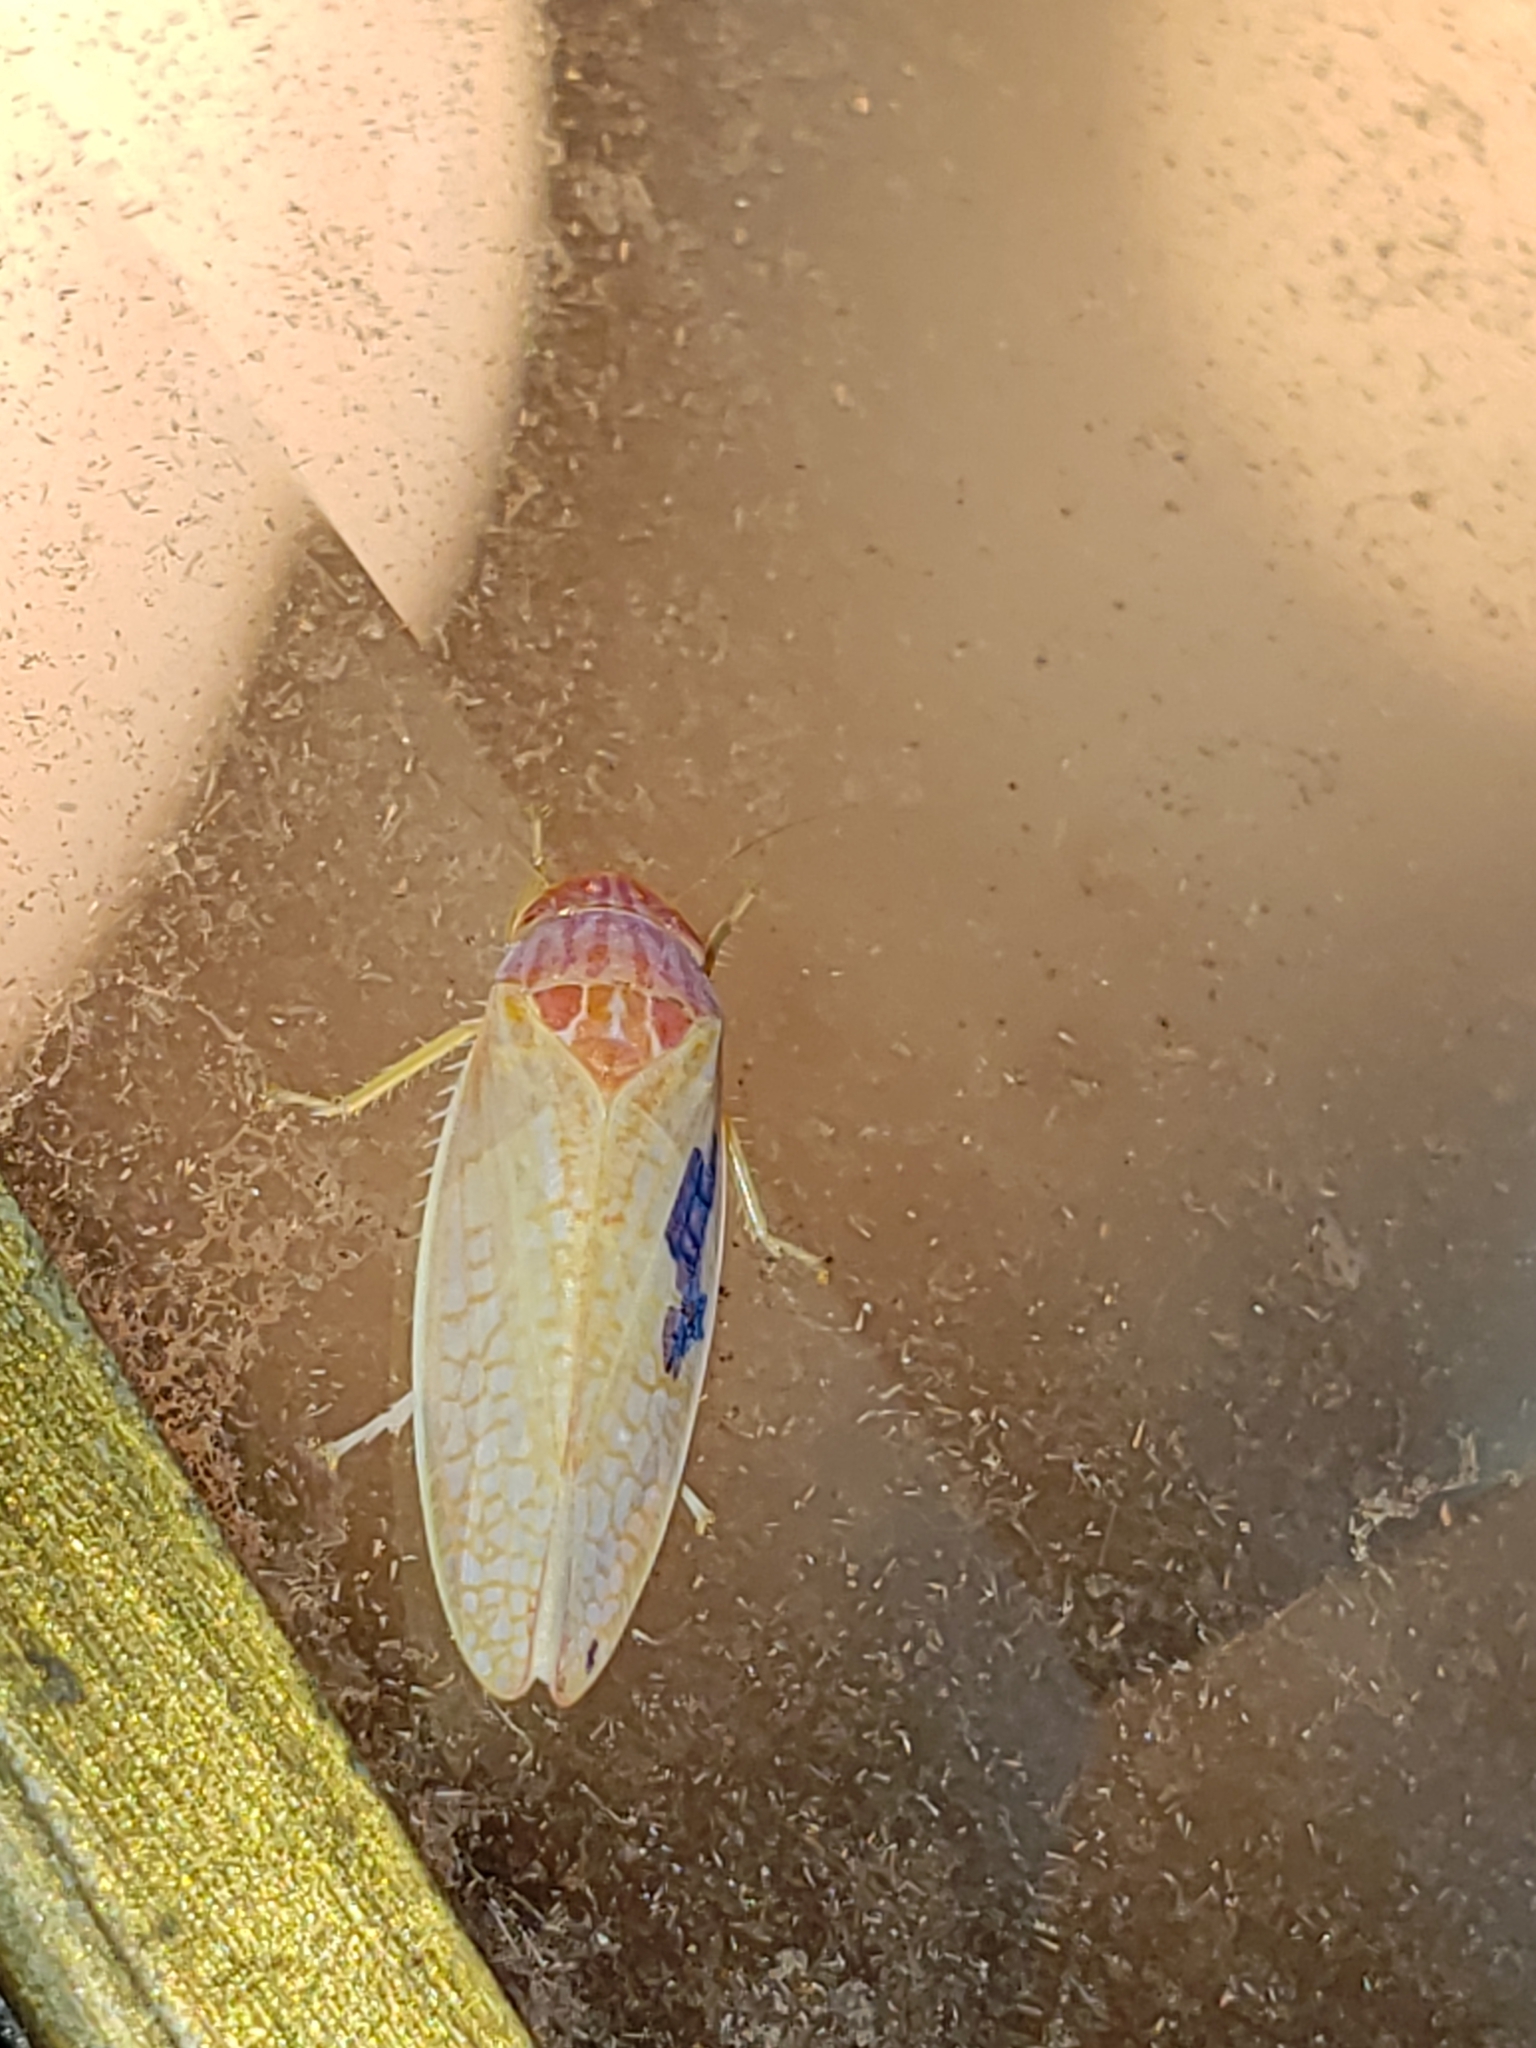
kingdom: Animalia
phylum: Arthropoda
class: Insecta
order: Hemiptera
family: Cicadellidae
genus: Gyponana
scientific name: Gyponana octolineata
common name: Eight-lined leafhopper
